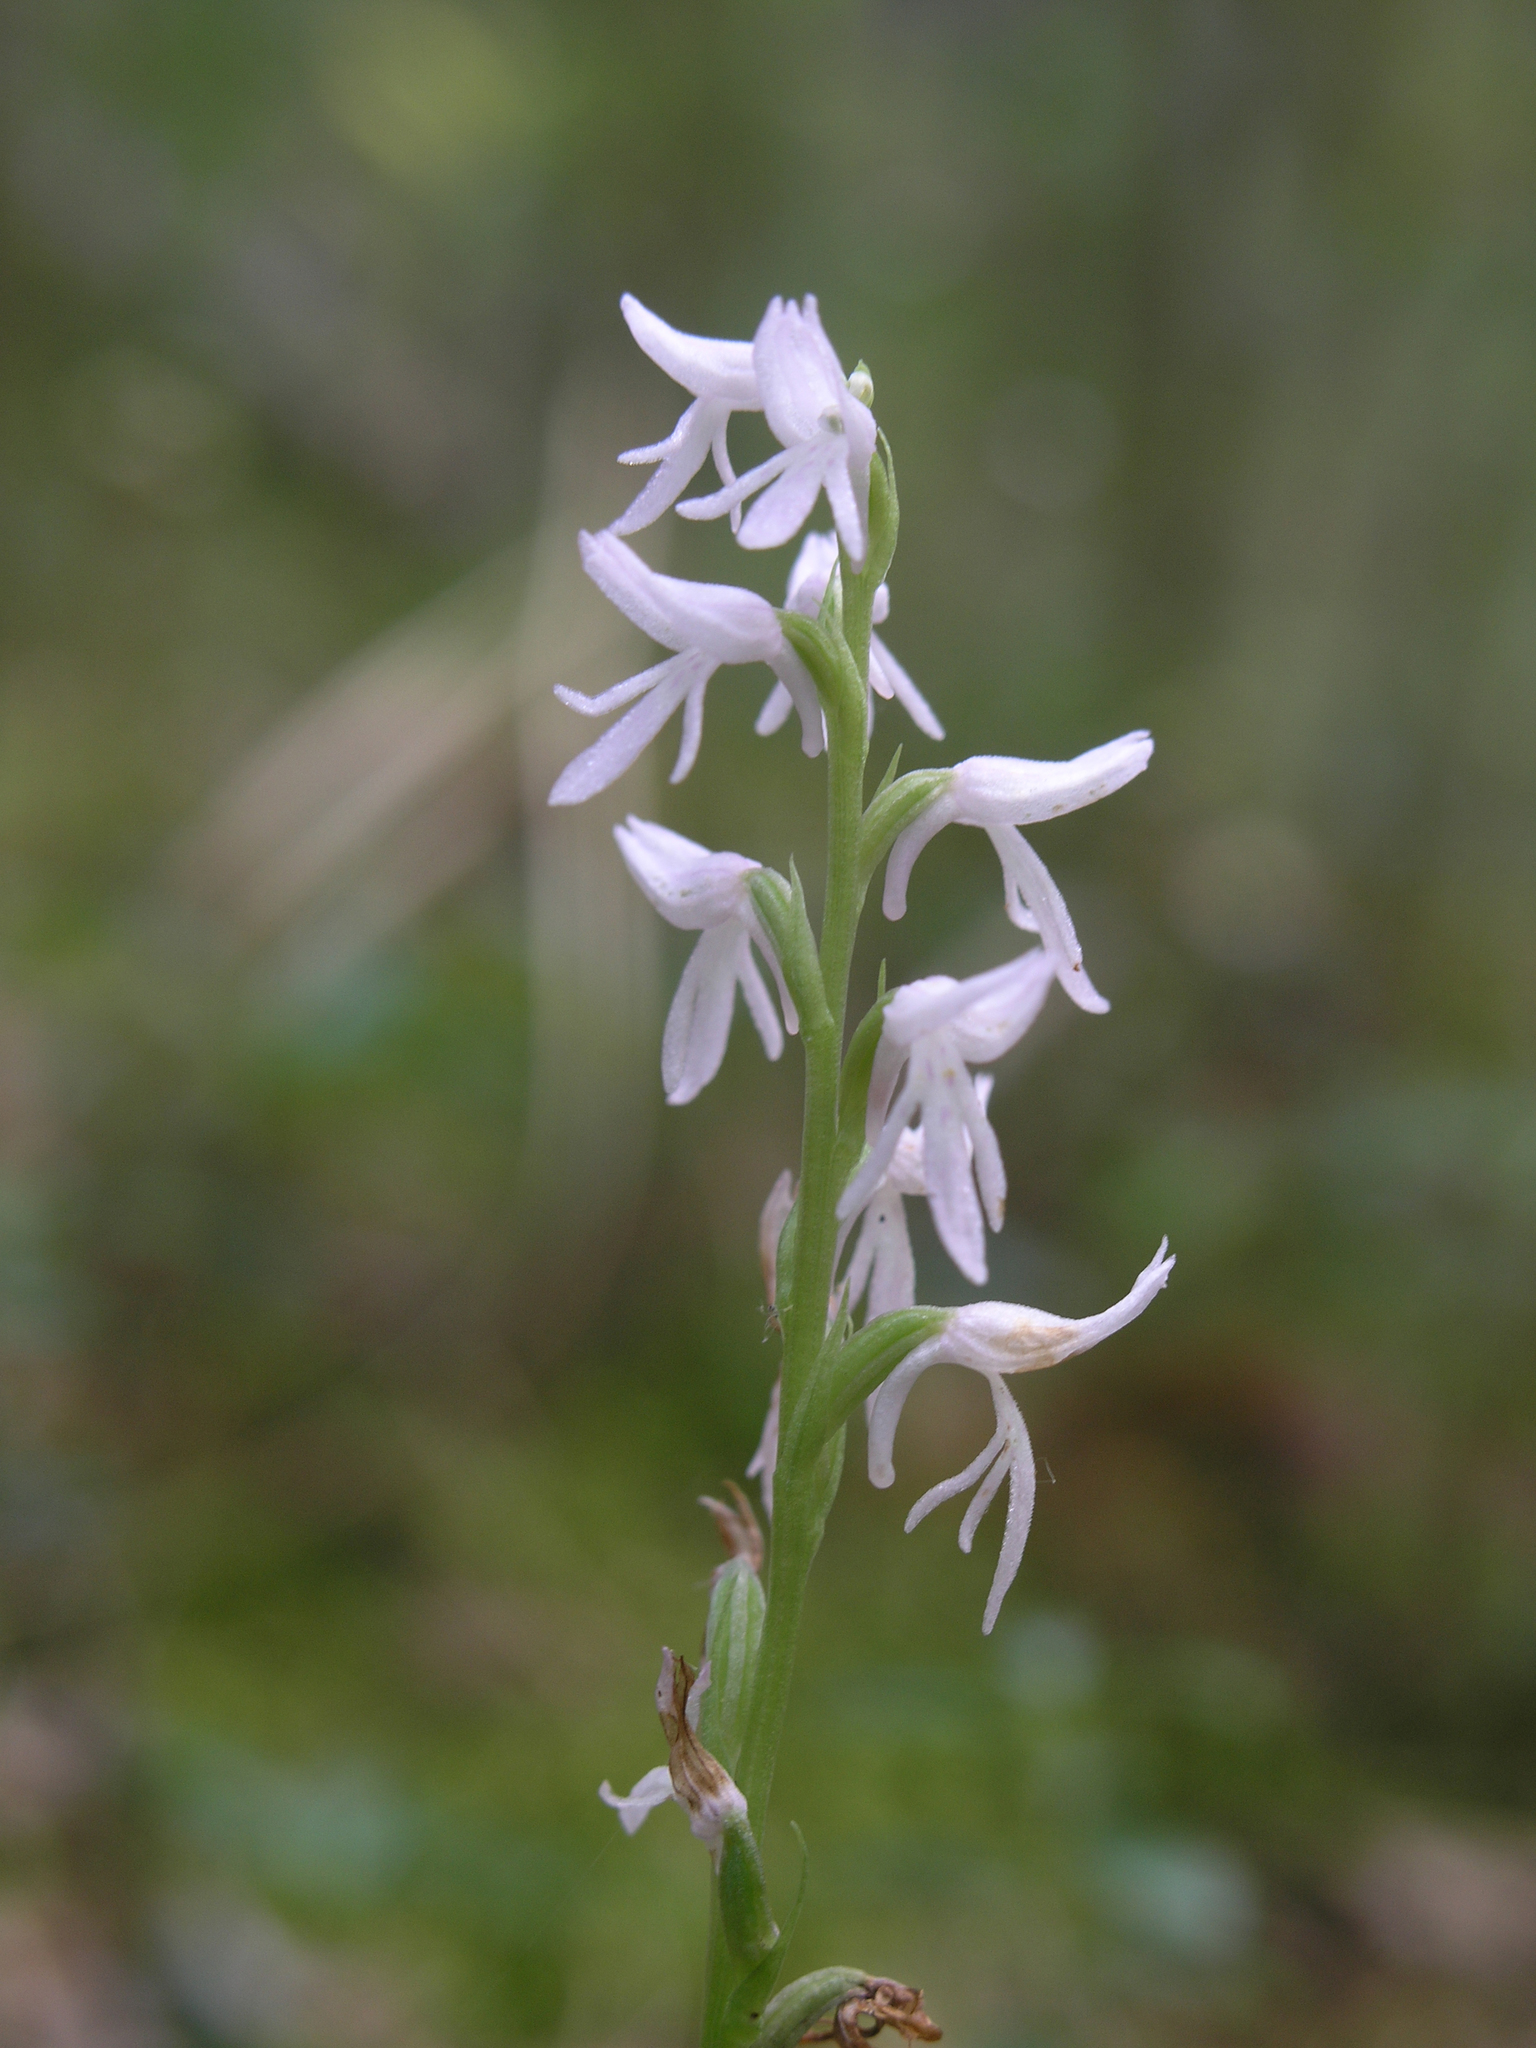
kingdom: Plantae
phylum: Tracheophyta
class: Liliopsida
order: Asparagales
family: Orchidaceae
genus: Hemipilia
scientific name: Hemipilia cucullata
